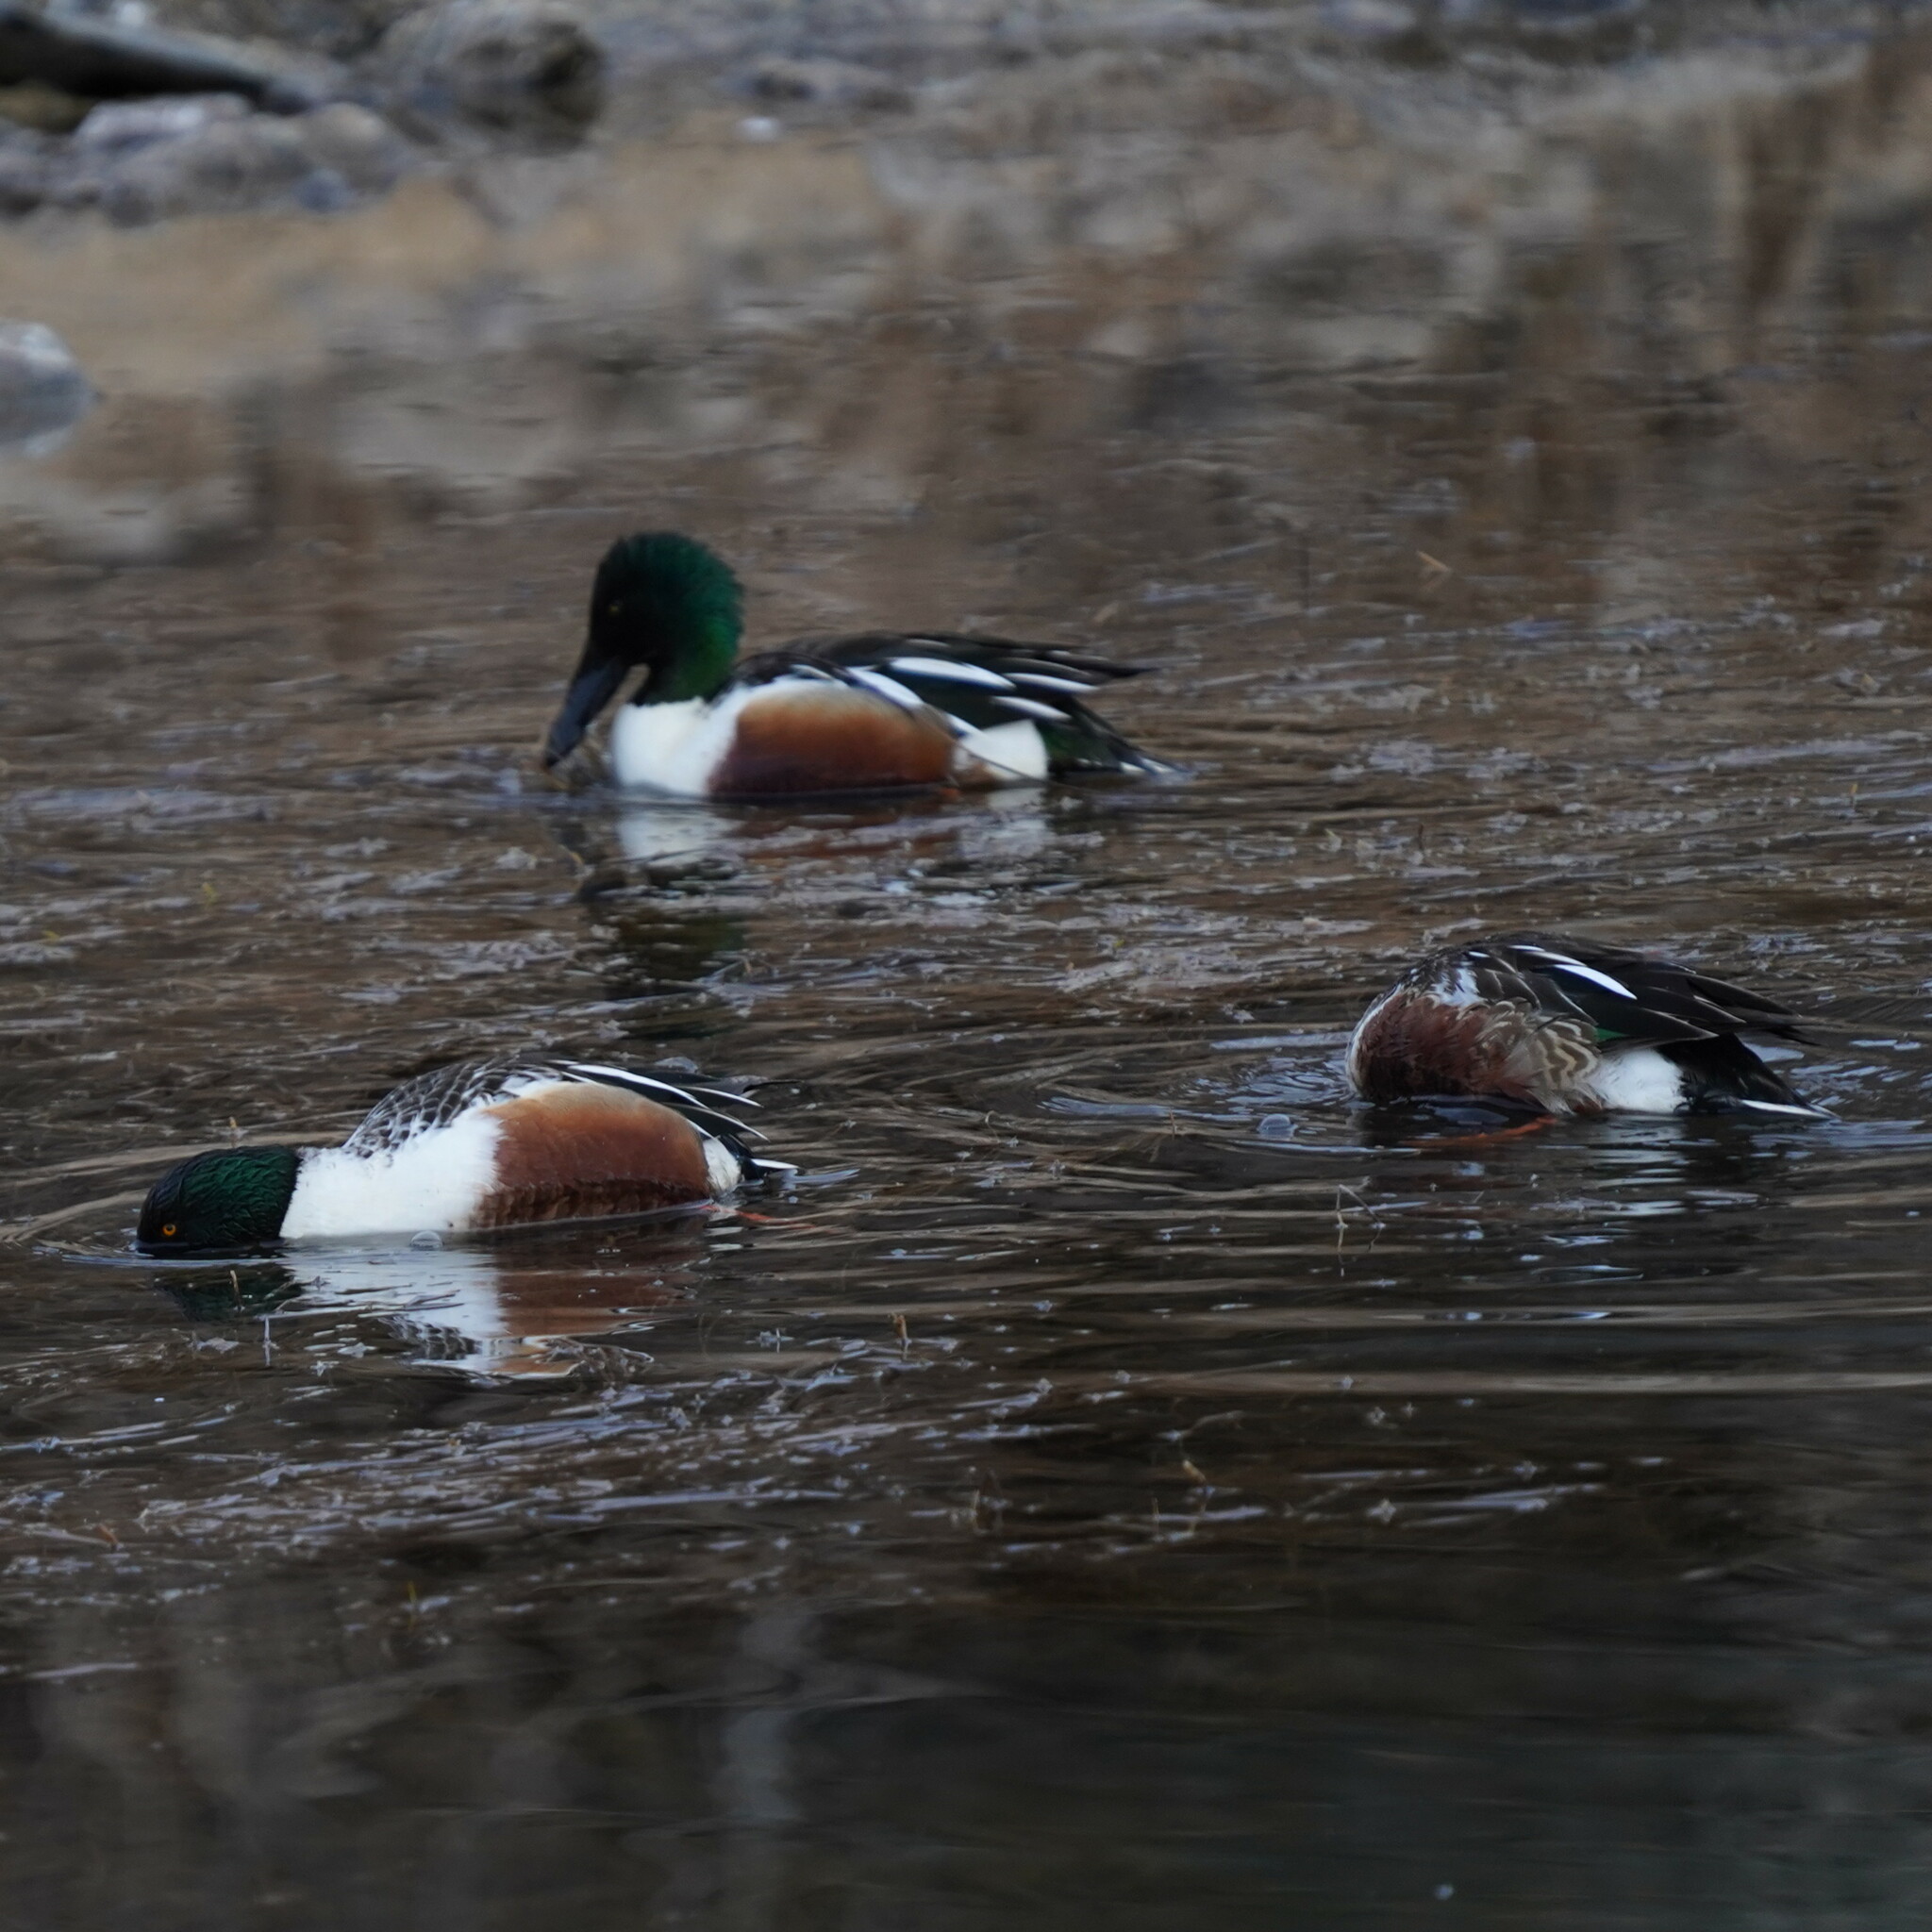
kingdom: Animalia
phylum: Chordata
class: Aves
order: Anseriformes
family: Anatidae
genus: Spatula
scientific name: Spatula clypeata
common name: Northern shoveler
